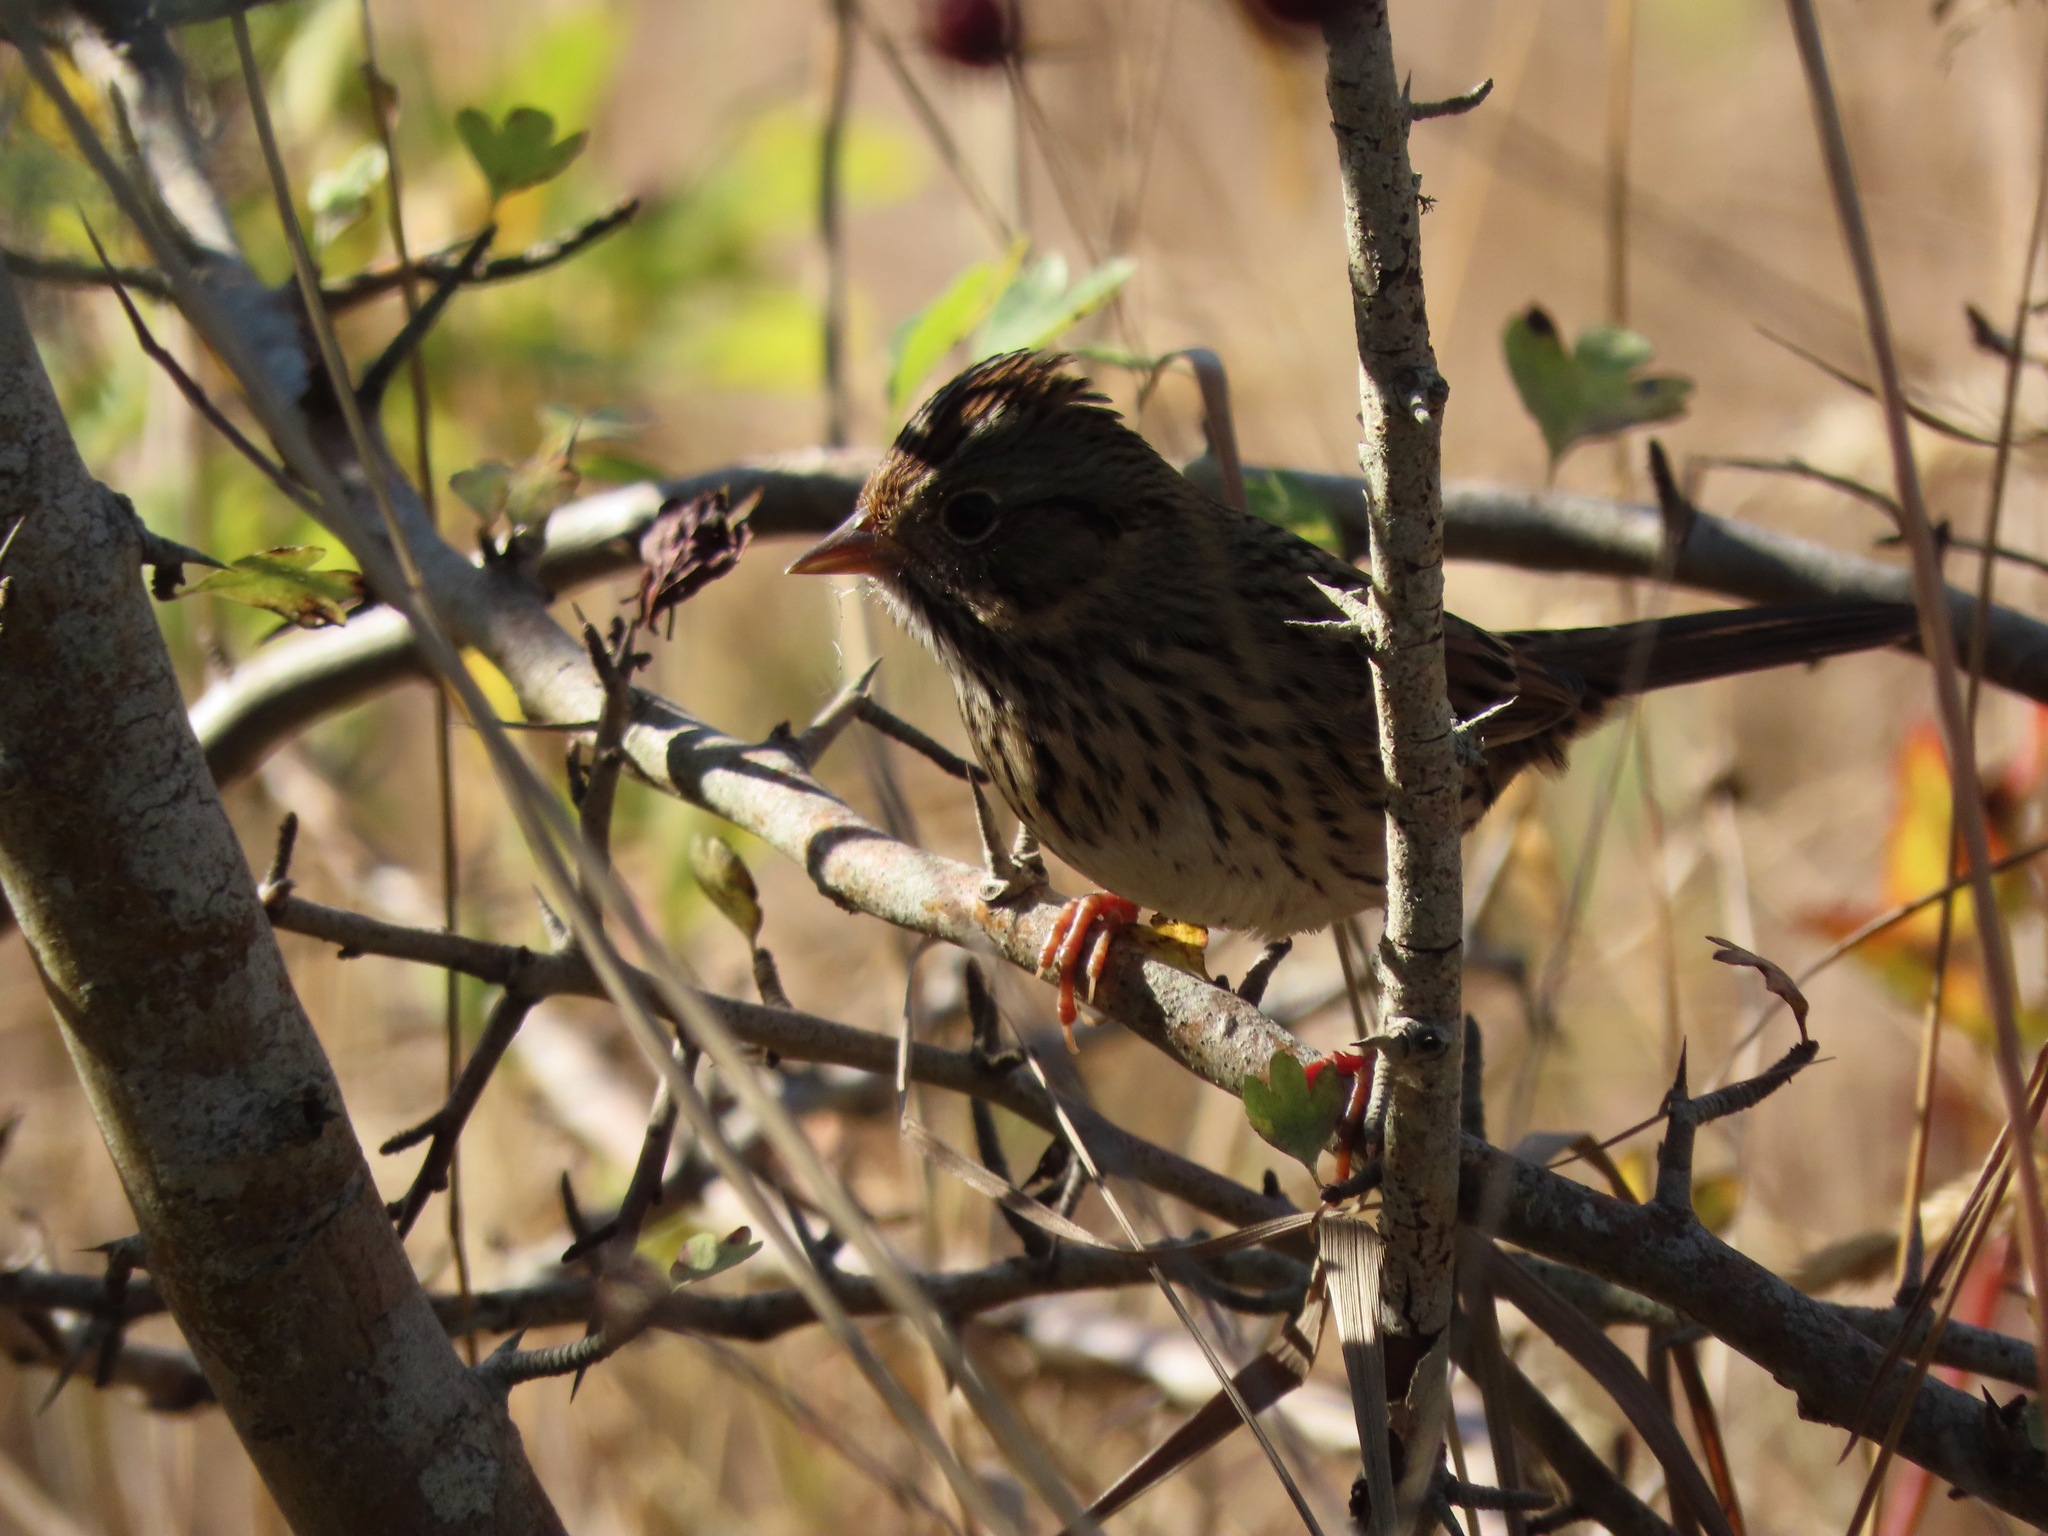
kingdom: Animalia
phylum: Chordata
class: Aves
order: Passeriformes
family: Passerellidae
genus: Melospiza
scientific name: Melospiza lincolnii
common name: Lincoln's sparrow
